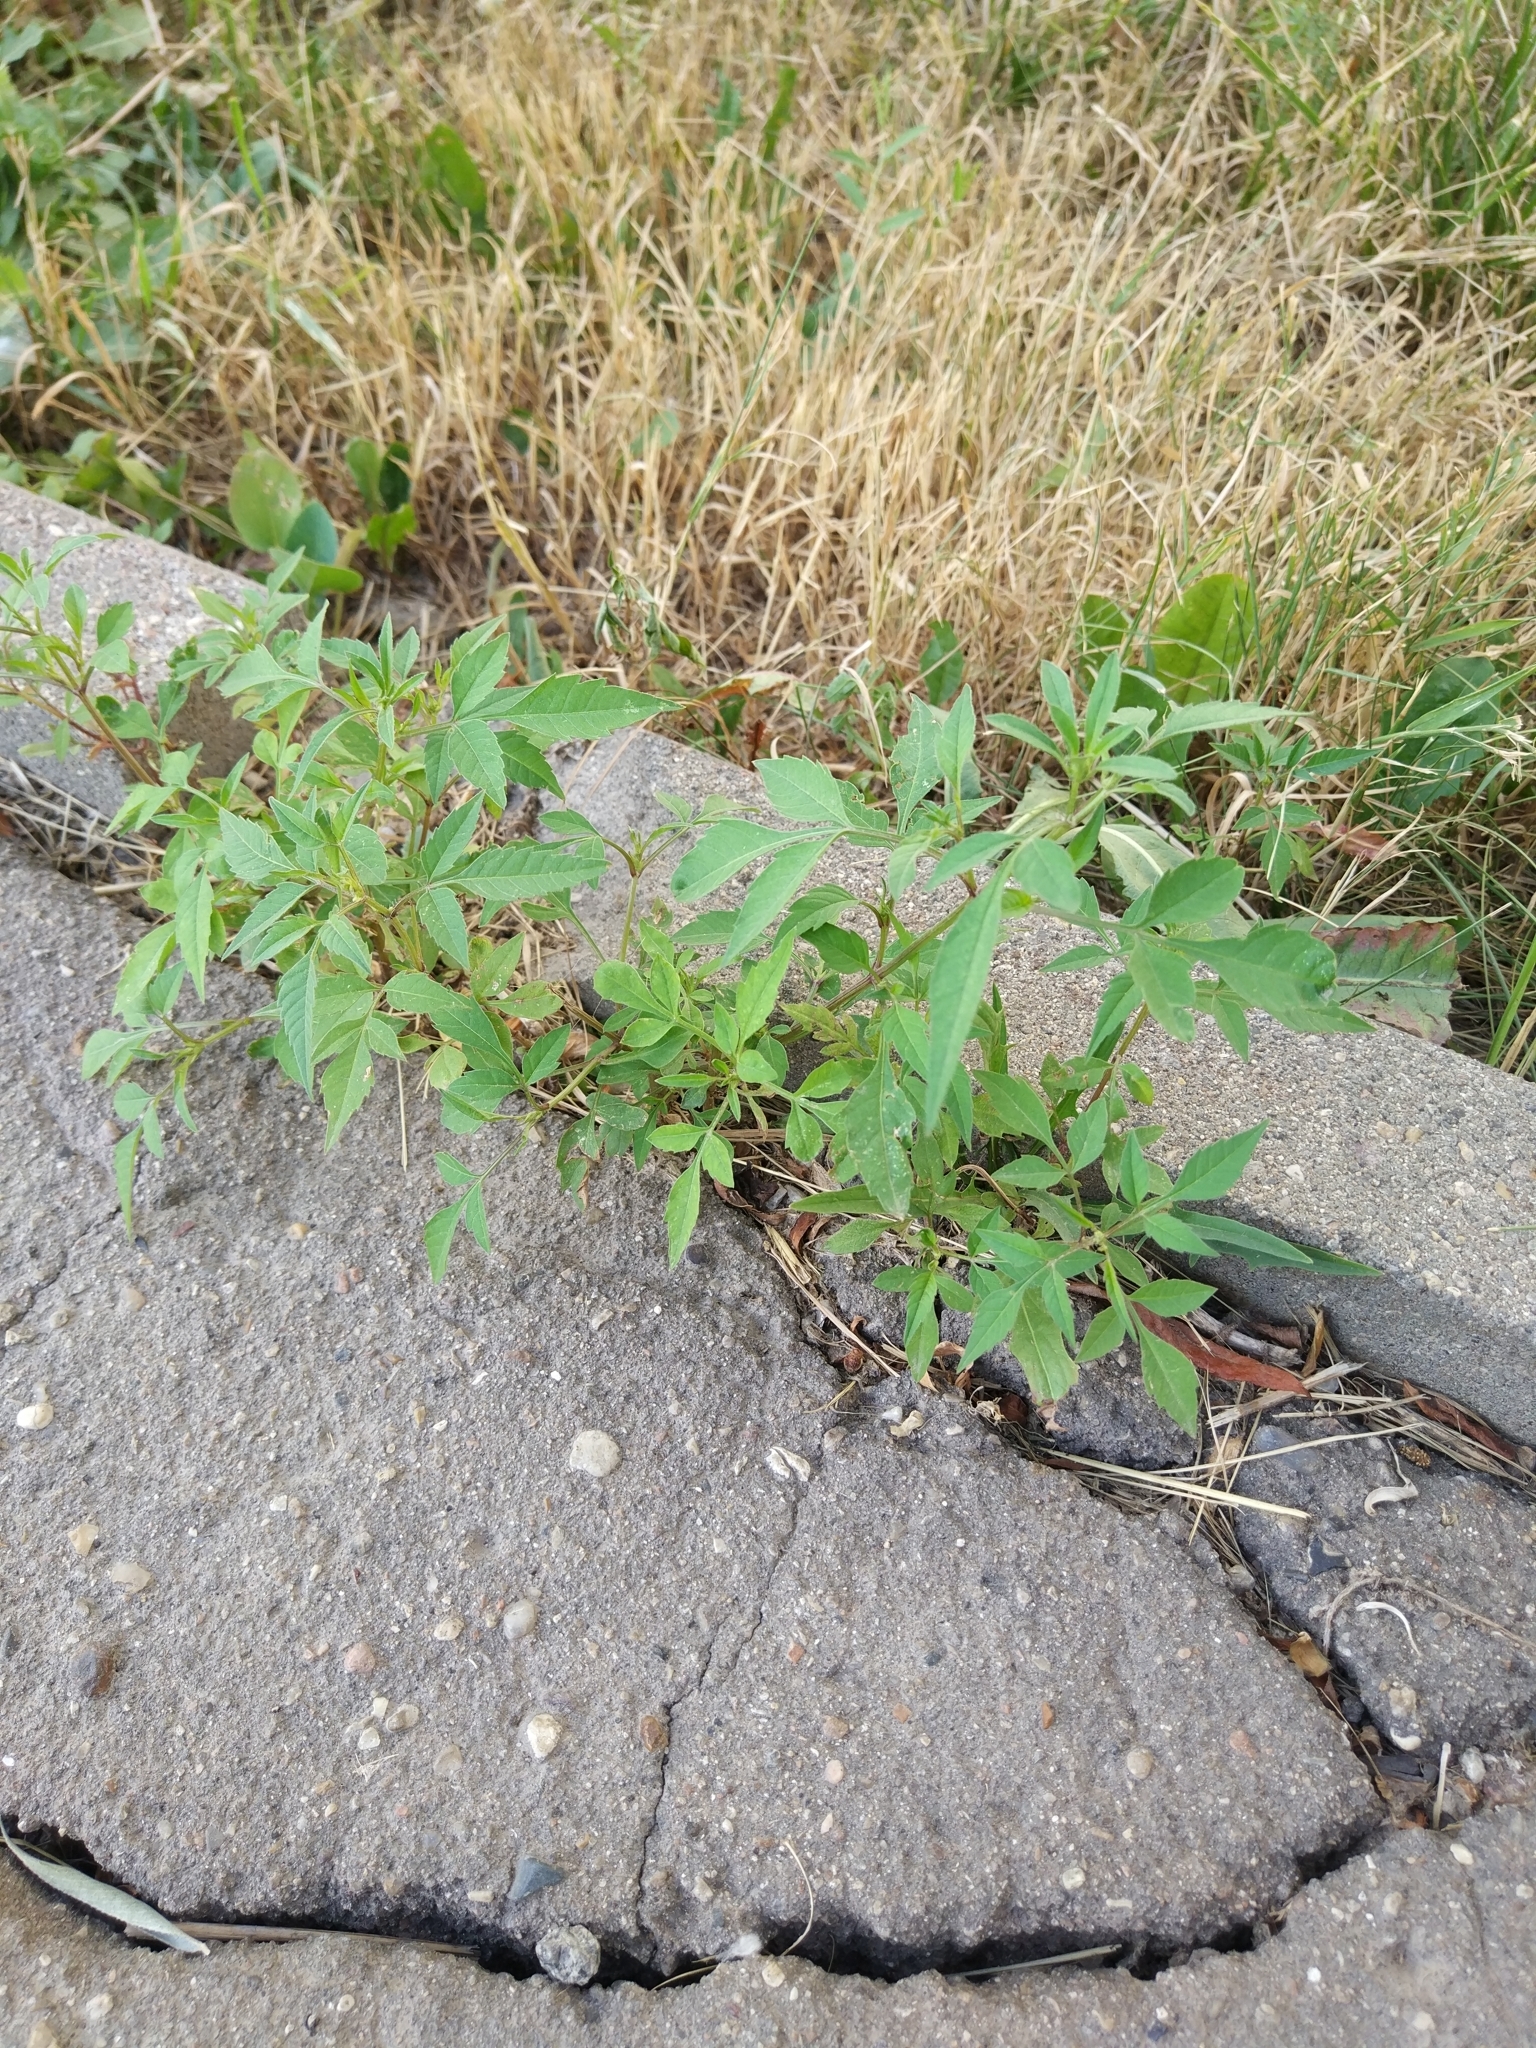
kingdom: Plantae
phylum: Tracheophyta
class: Magnoliopsida
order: Asterales
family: Asteraceae
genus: Bidens
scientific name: Bidens frondosa
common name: Beggarticks
